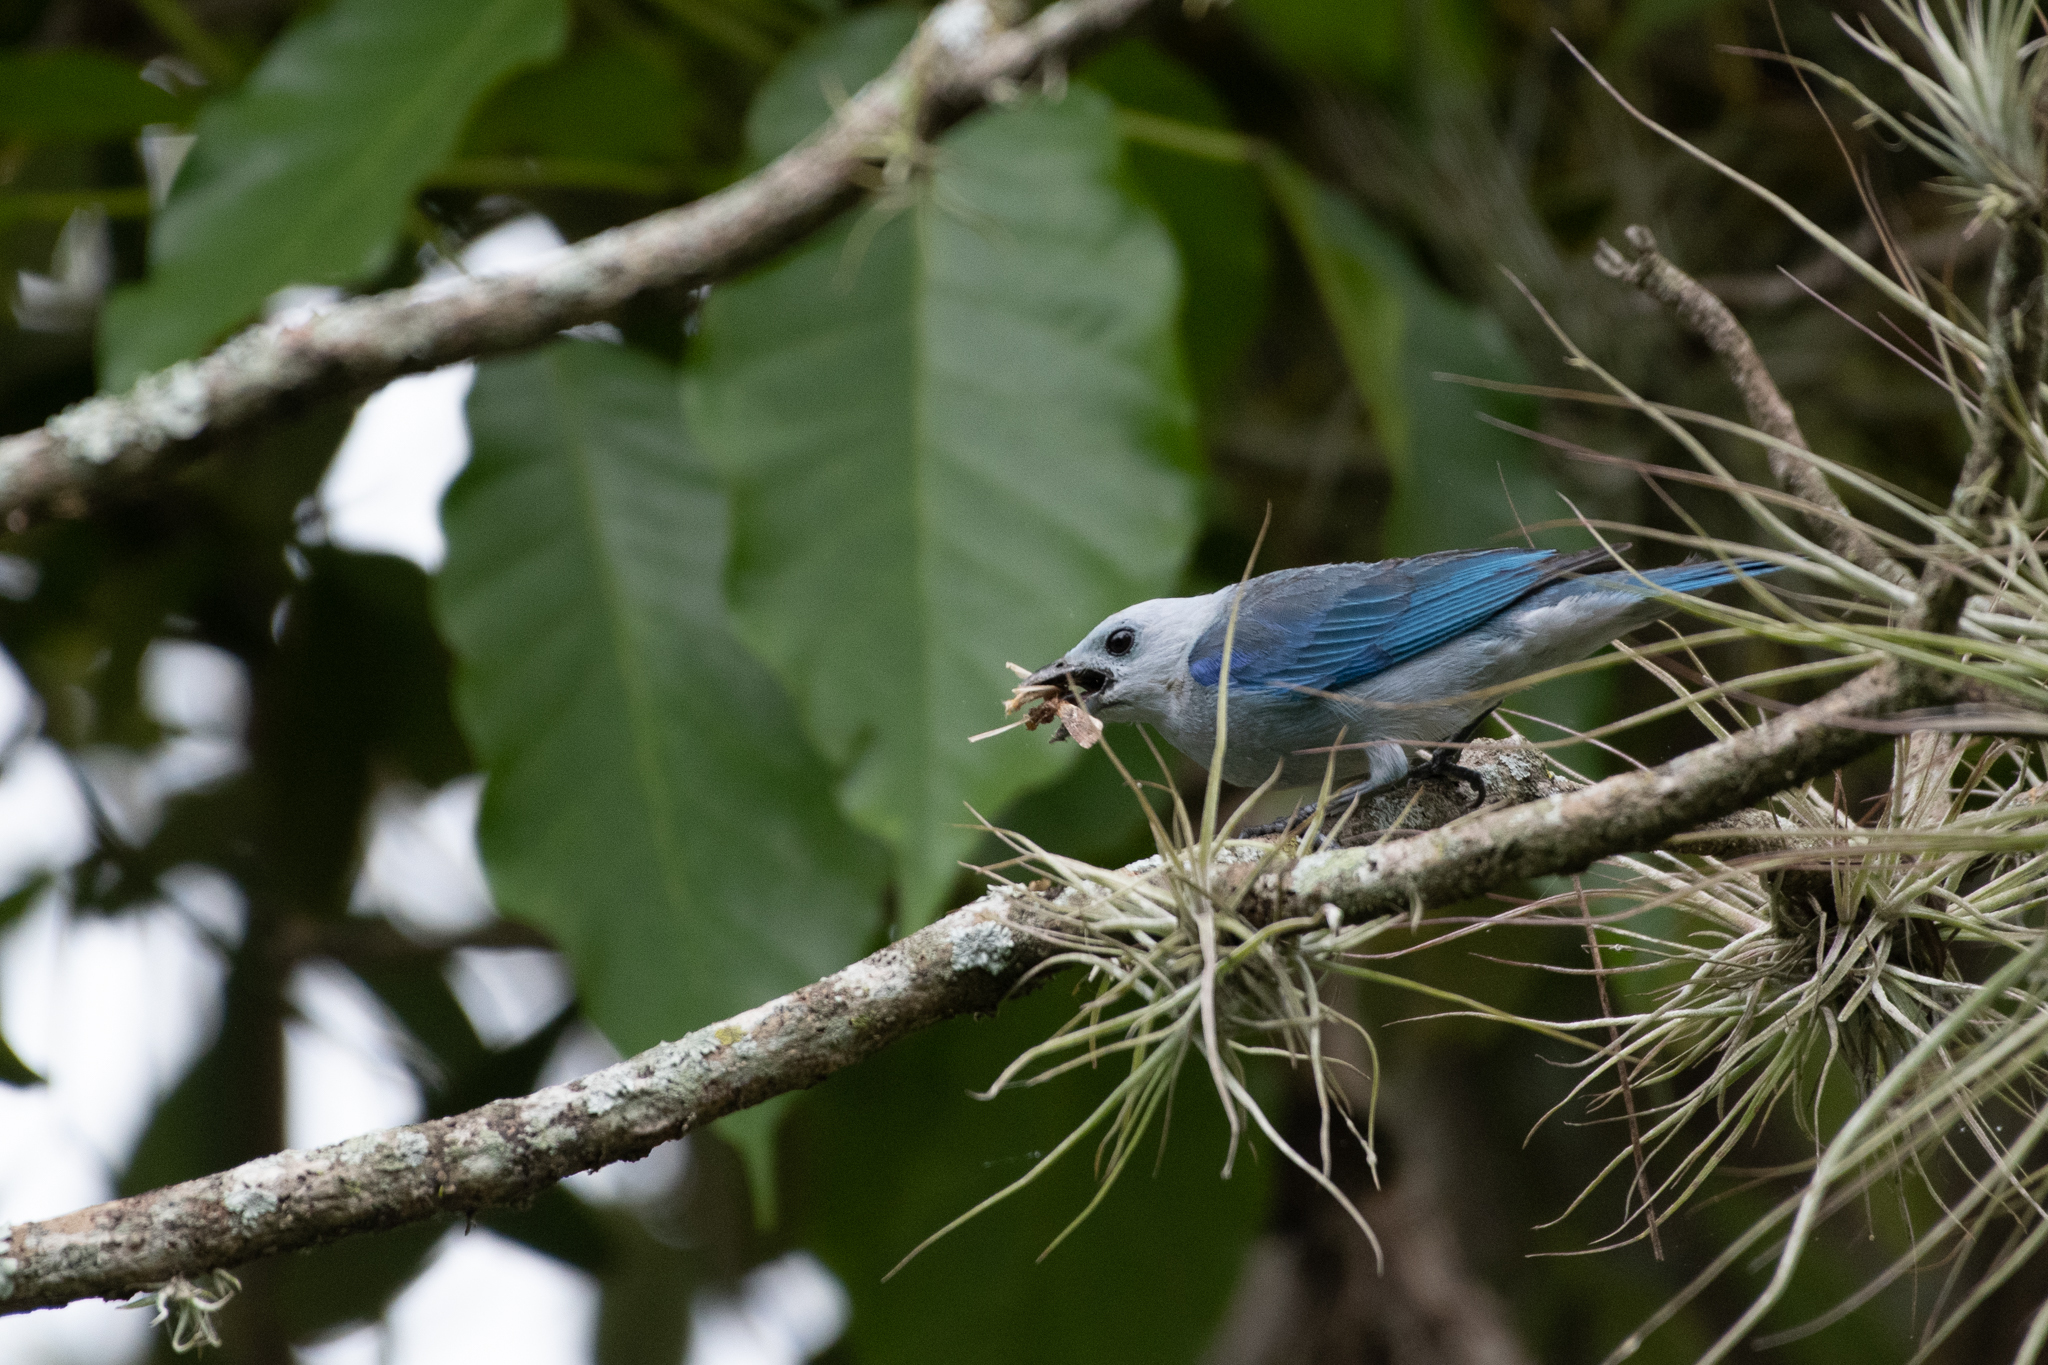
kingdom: Animalia
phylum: Chordata
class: Aves
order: Passeriformes
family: Thraupidae
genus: Thraupis
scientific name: Thraupis episcopus
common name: Blue-grey tanager
